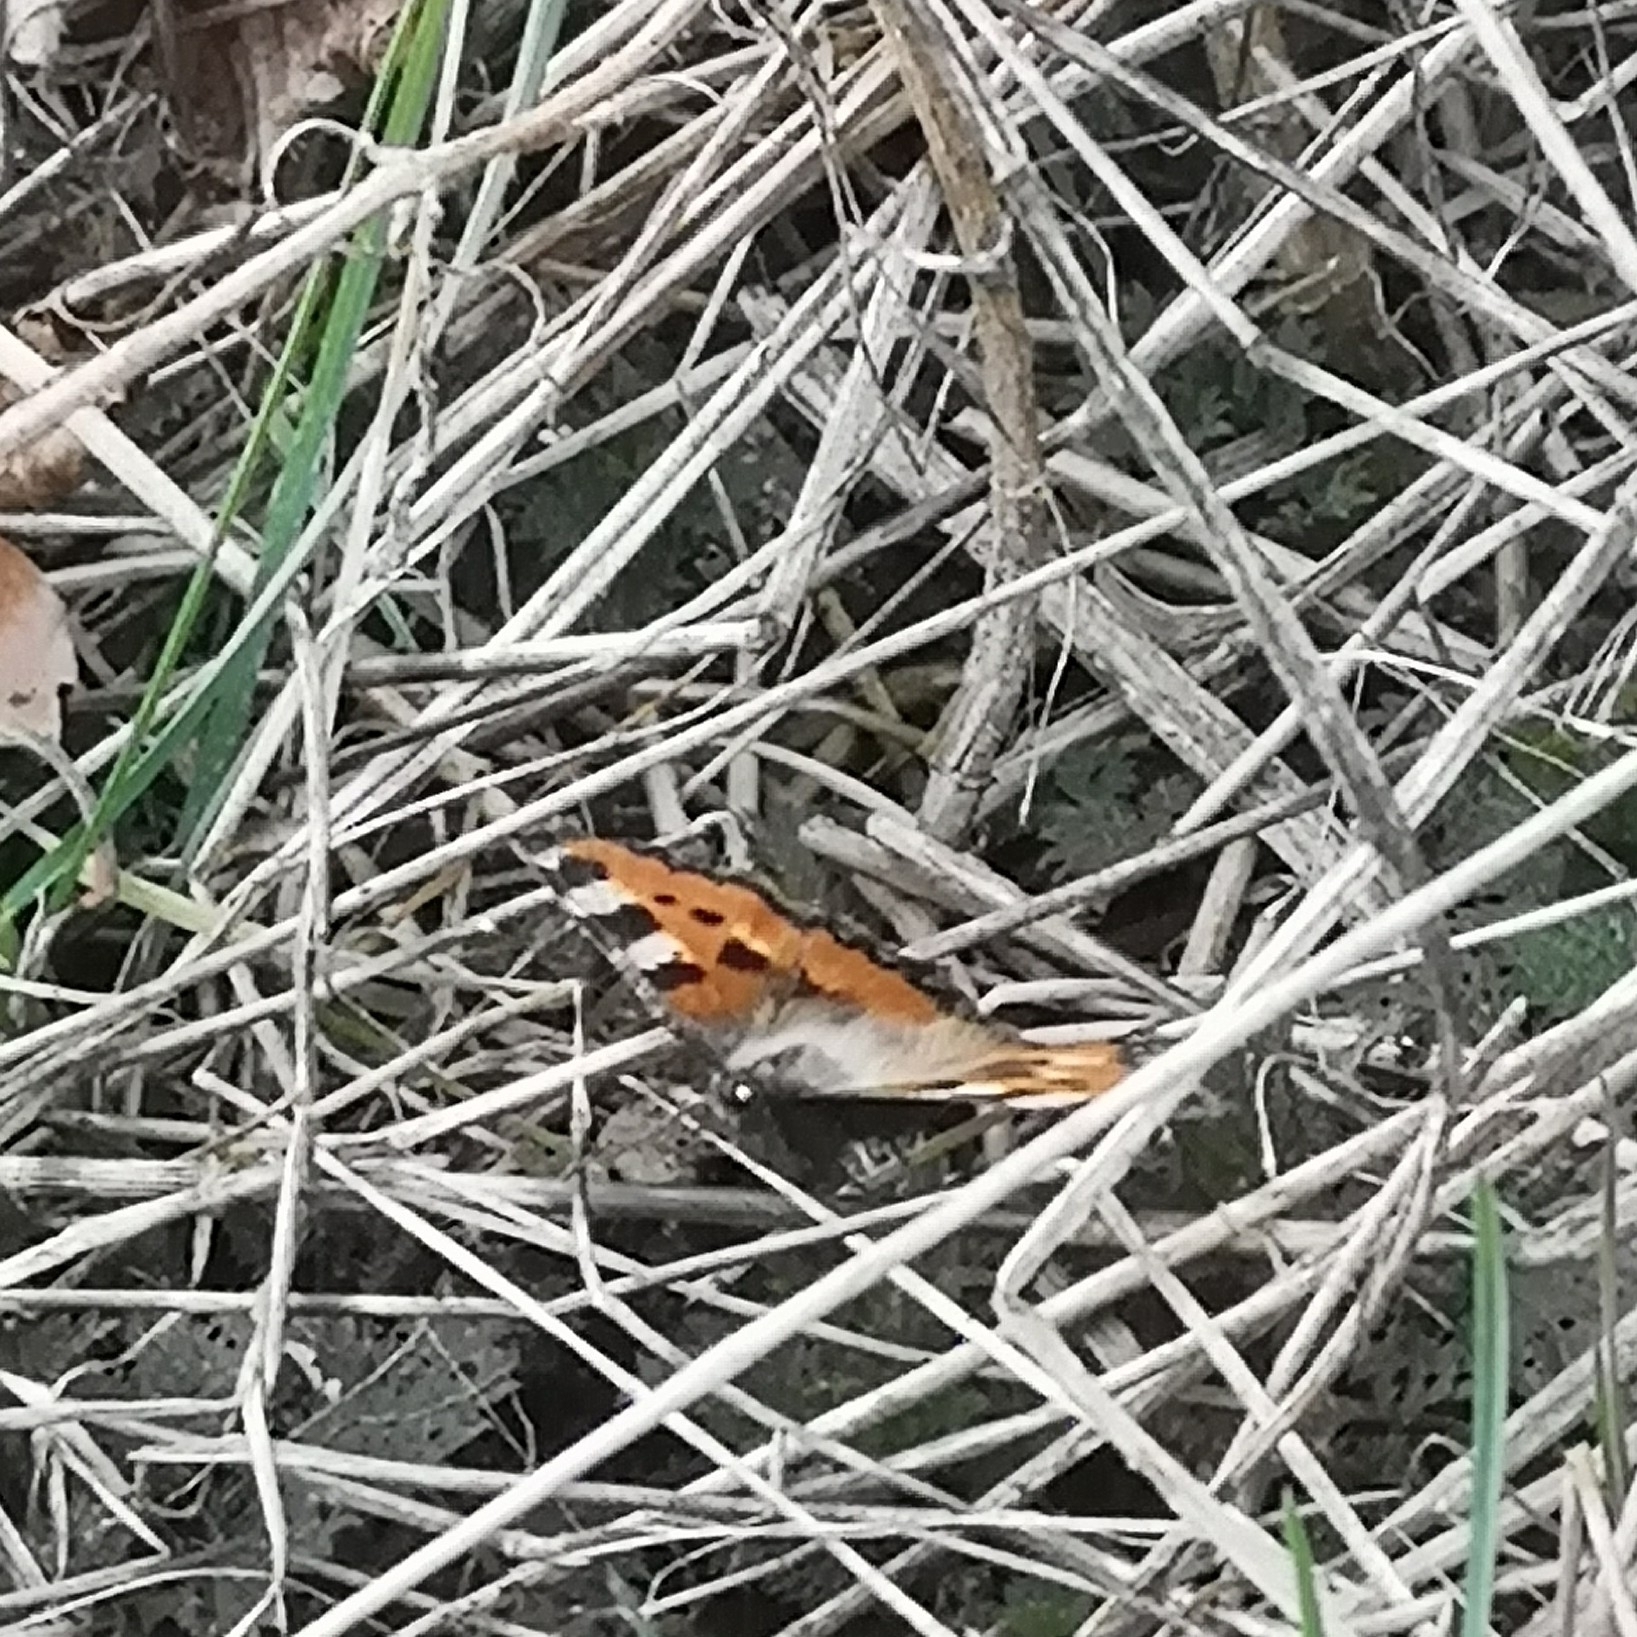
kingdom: Animalia
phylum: Arthropoda
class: Insecta
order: Lepidoptera
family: Nymphalidae
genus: Aglais
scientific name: Aglais urticae
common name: Small tortoiseshell
